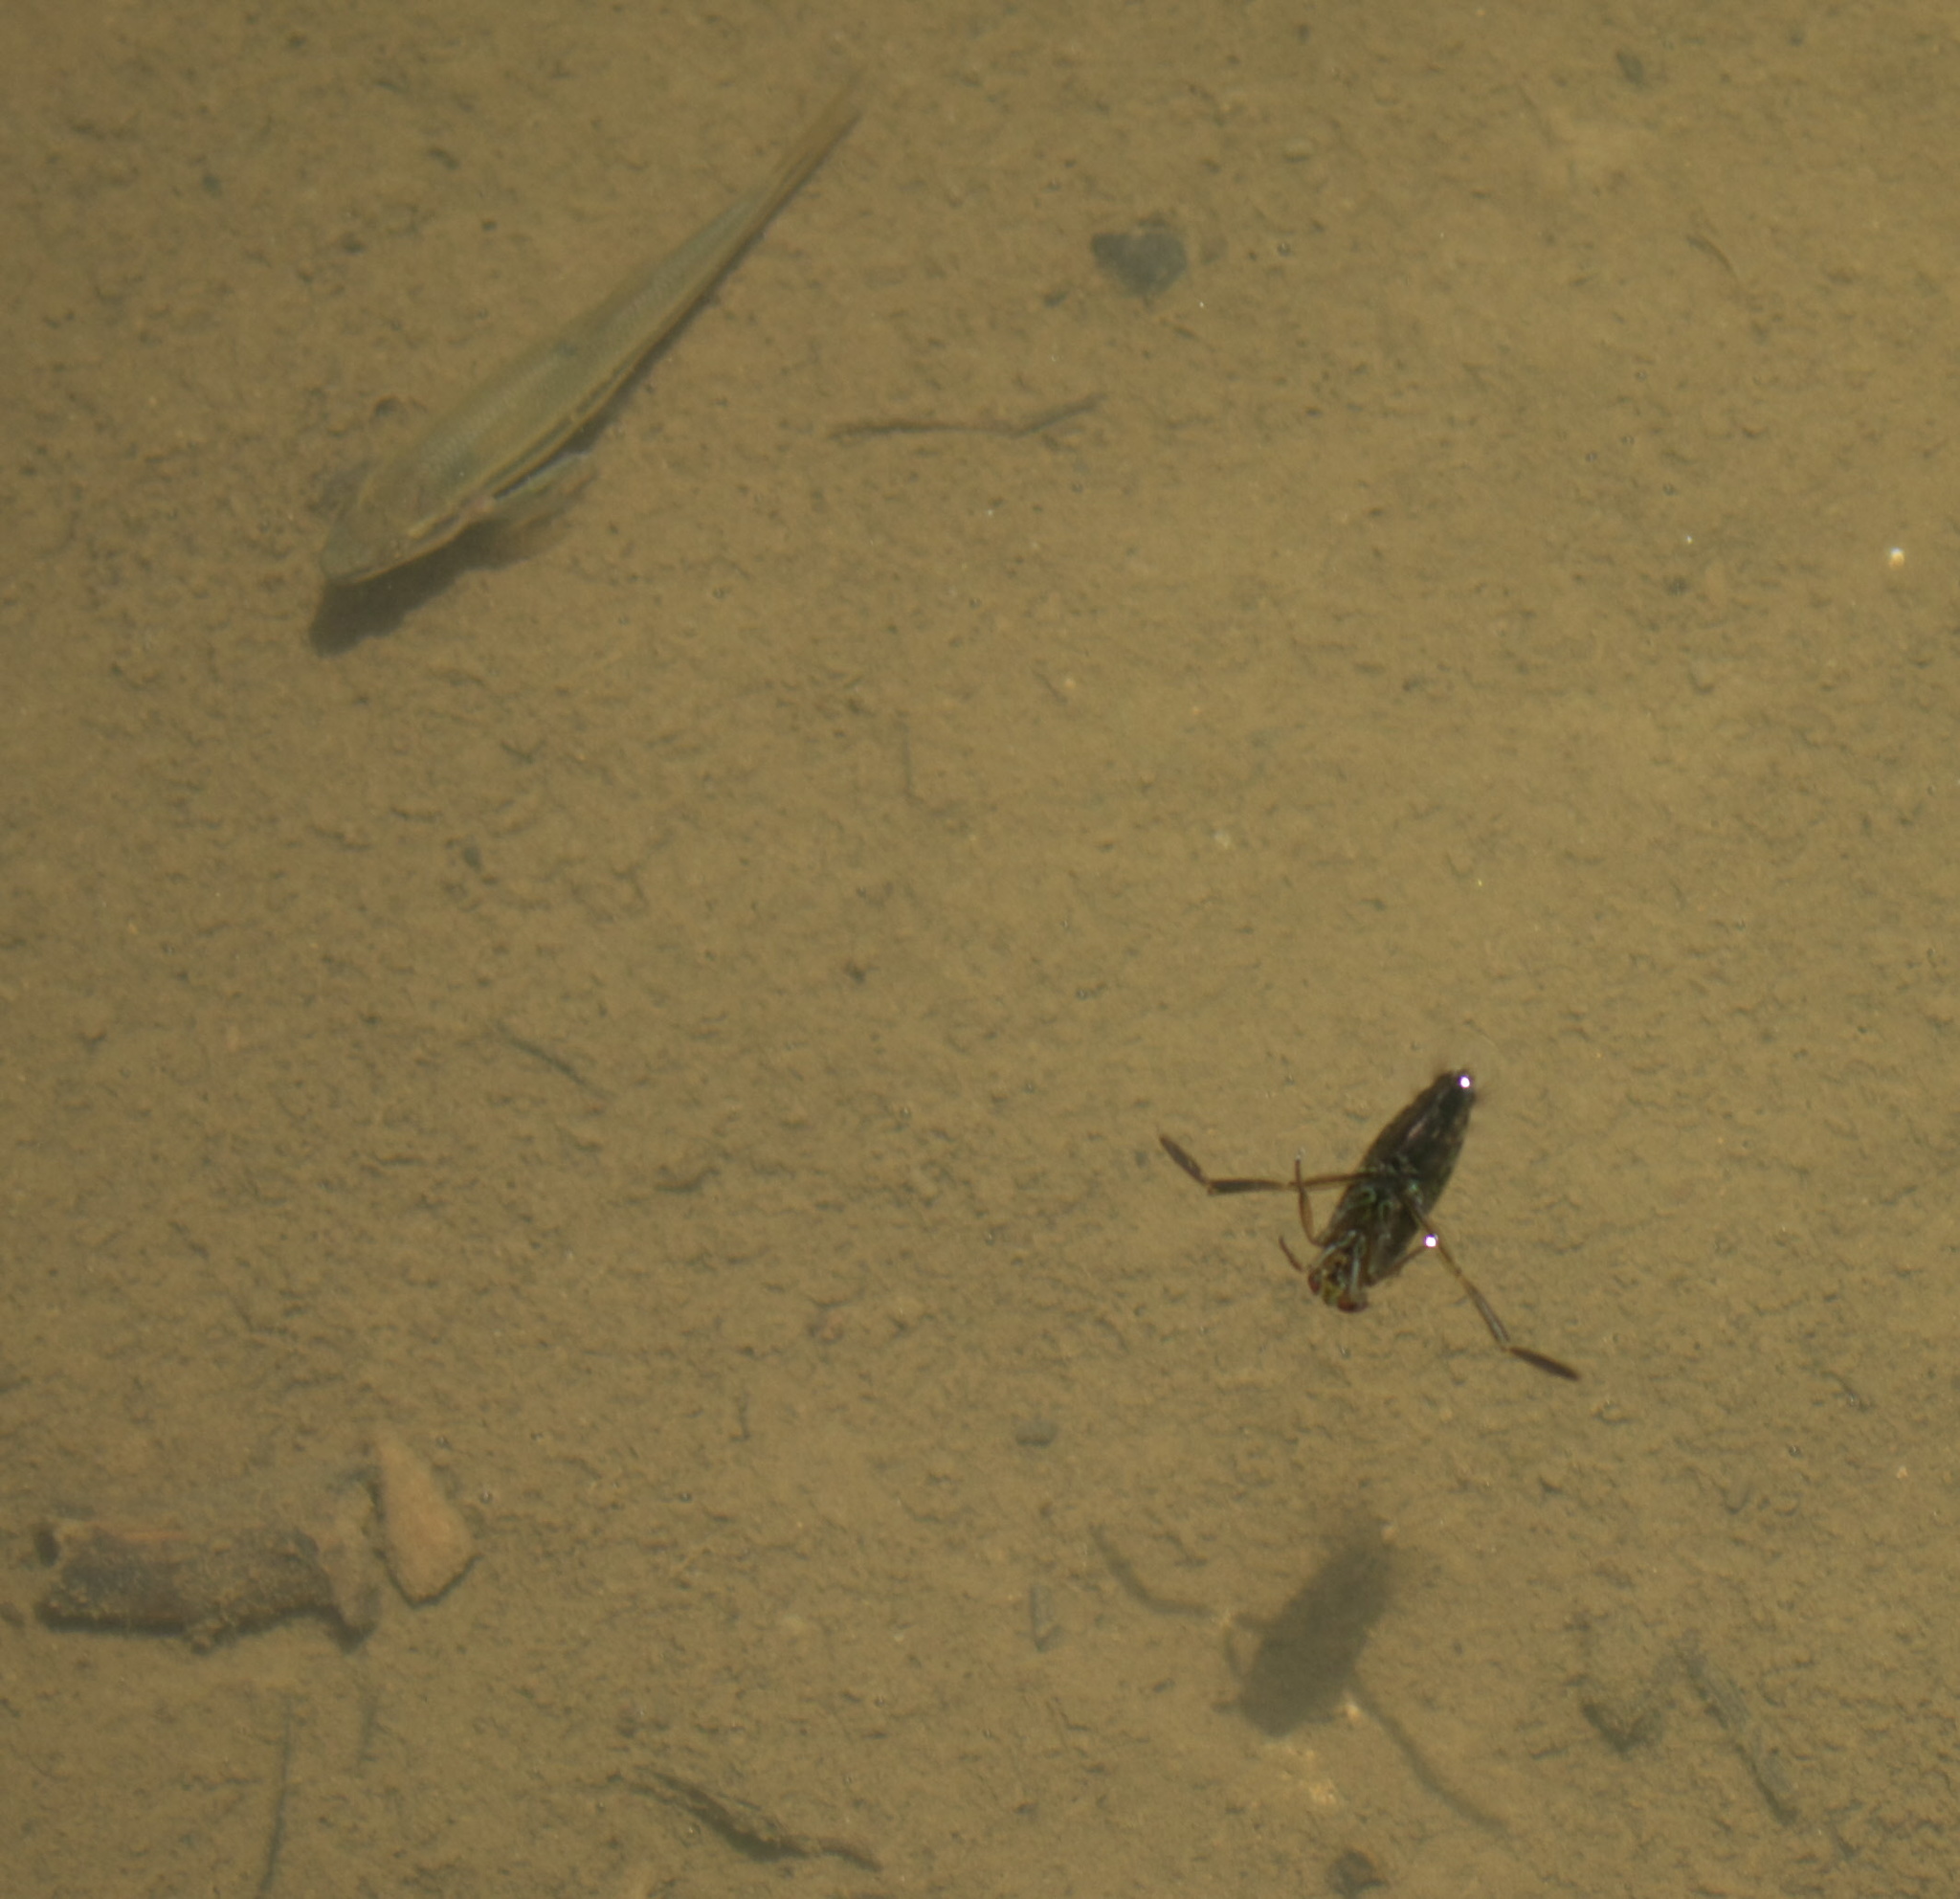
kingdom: Animalia
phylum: Arthropoda
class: Insecta
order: Hemiptera
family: Notonectidae
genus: Notonecta
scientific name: Notonecta
